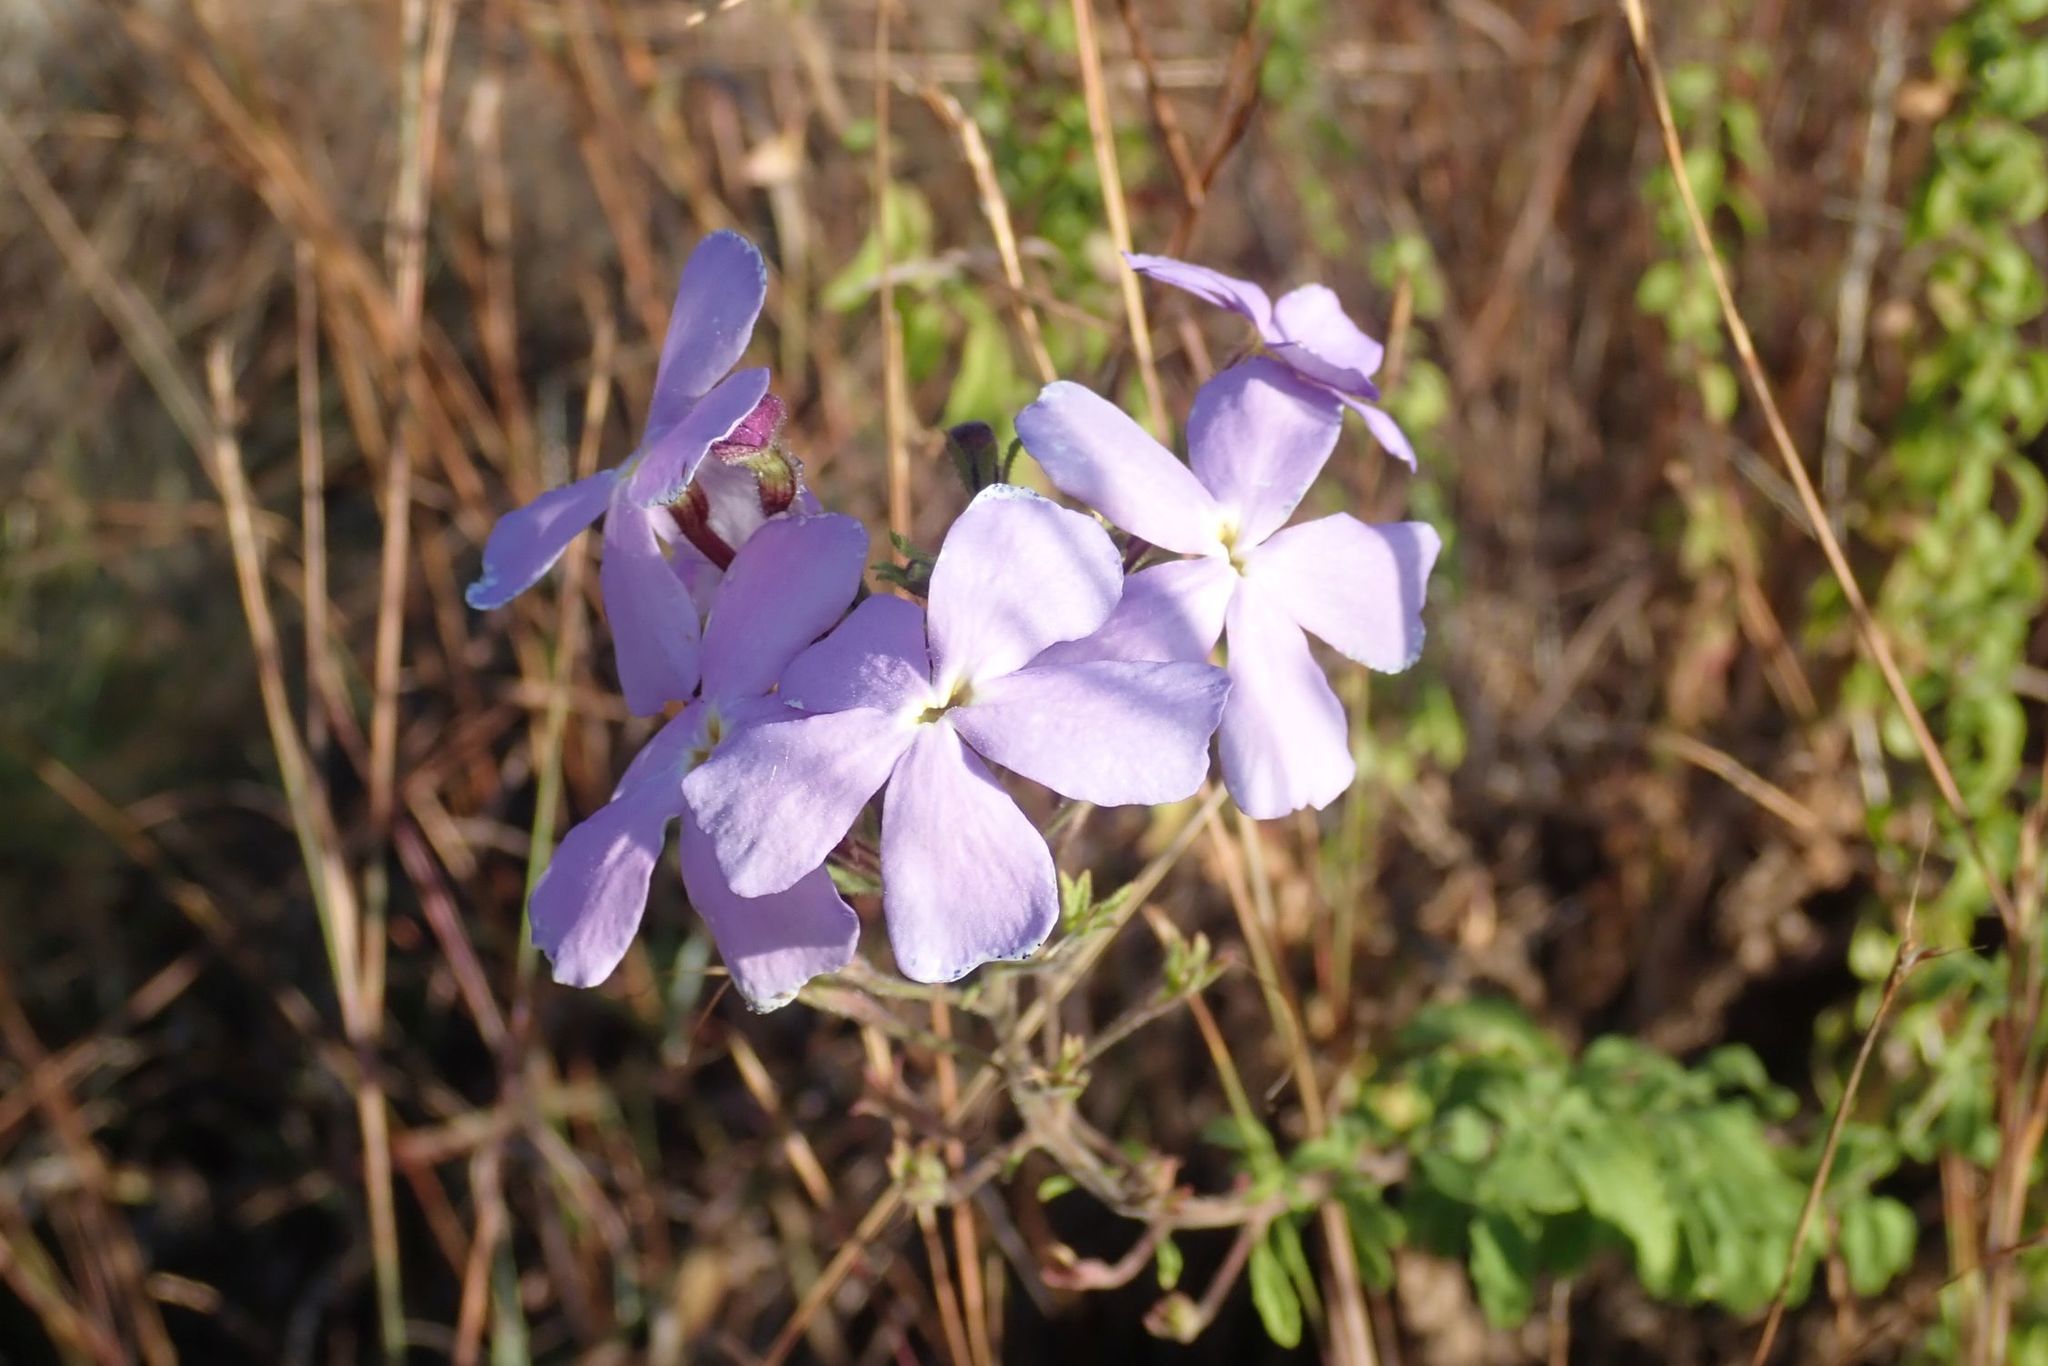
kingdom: Plantae
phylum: Tracheophyta
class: Magnoliopsida
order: Lamiales
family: Scrophulariaceae
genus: Jamesbrittenia
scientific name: Jamesbrittenia grandiflora
